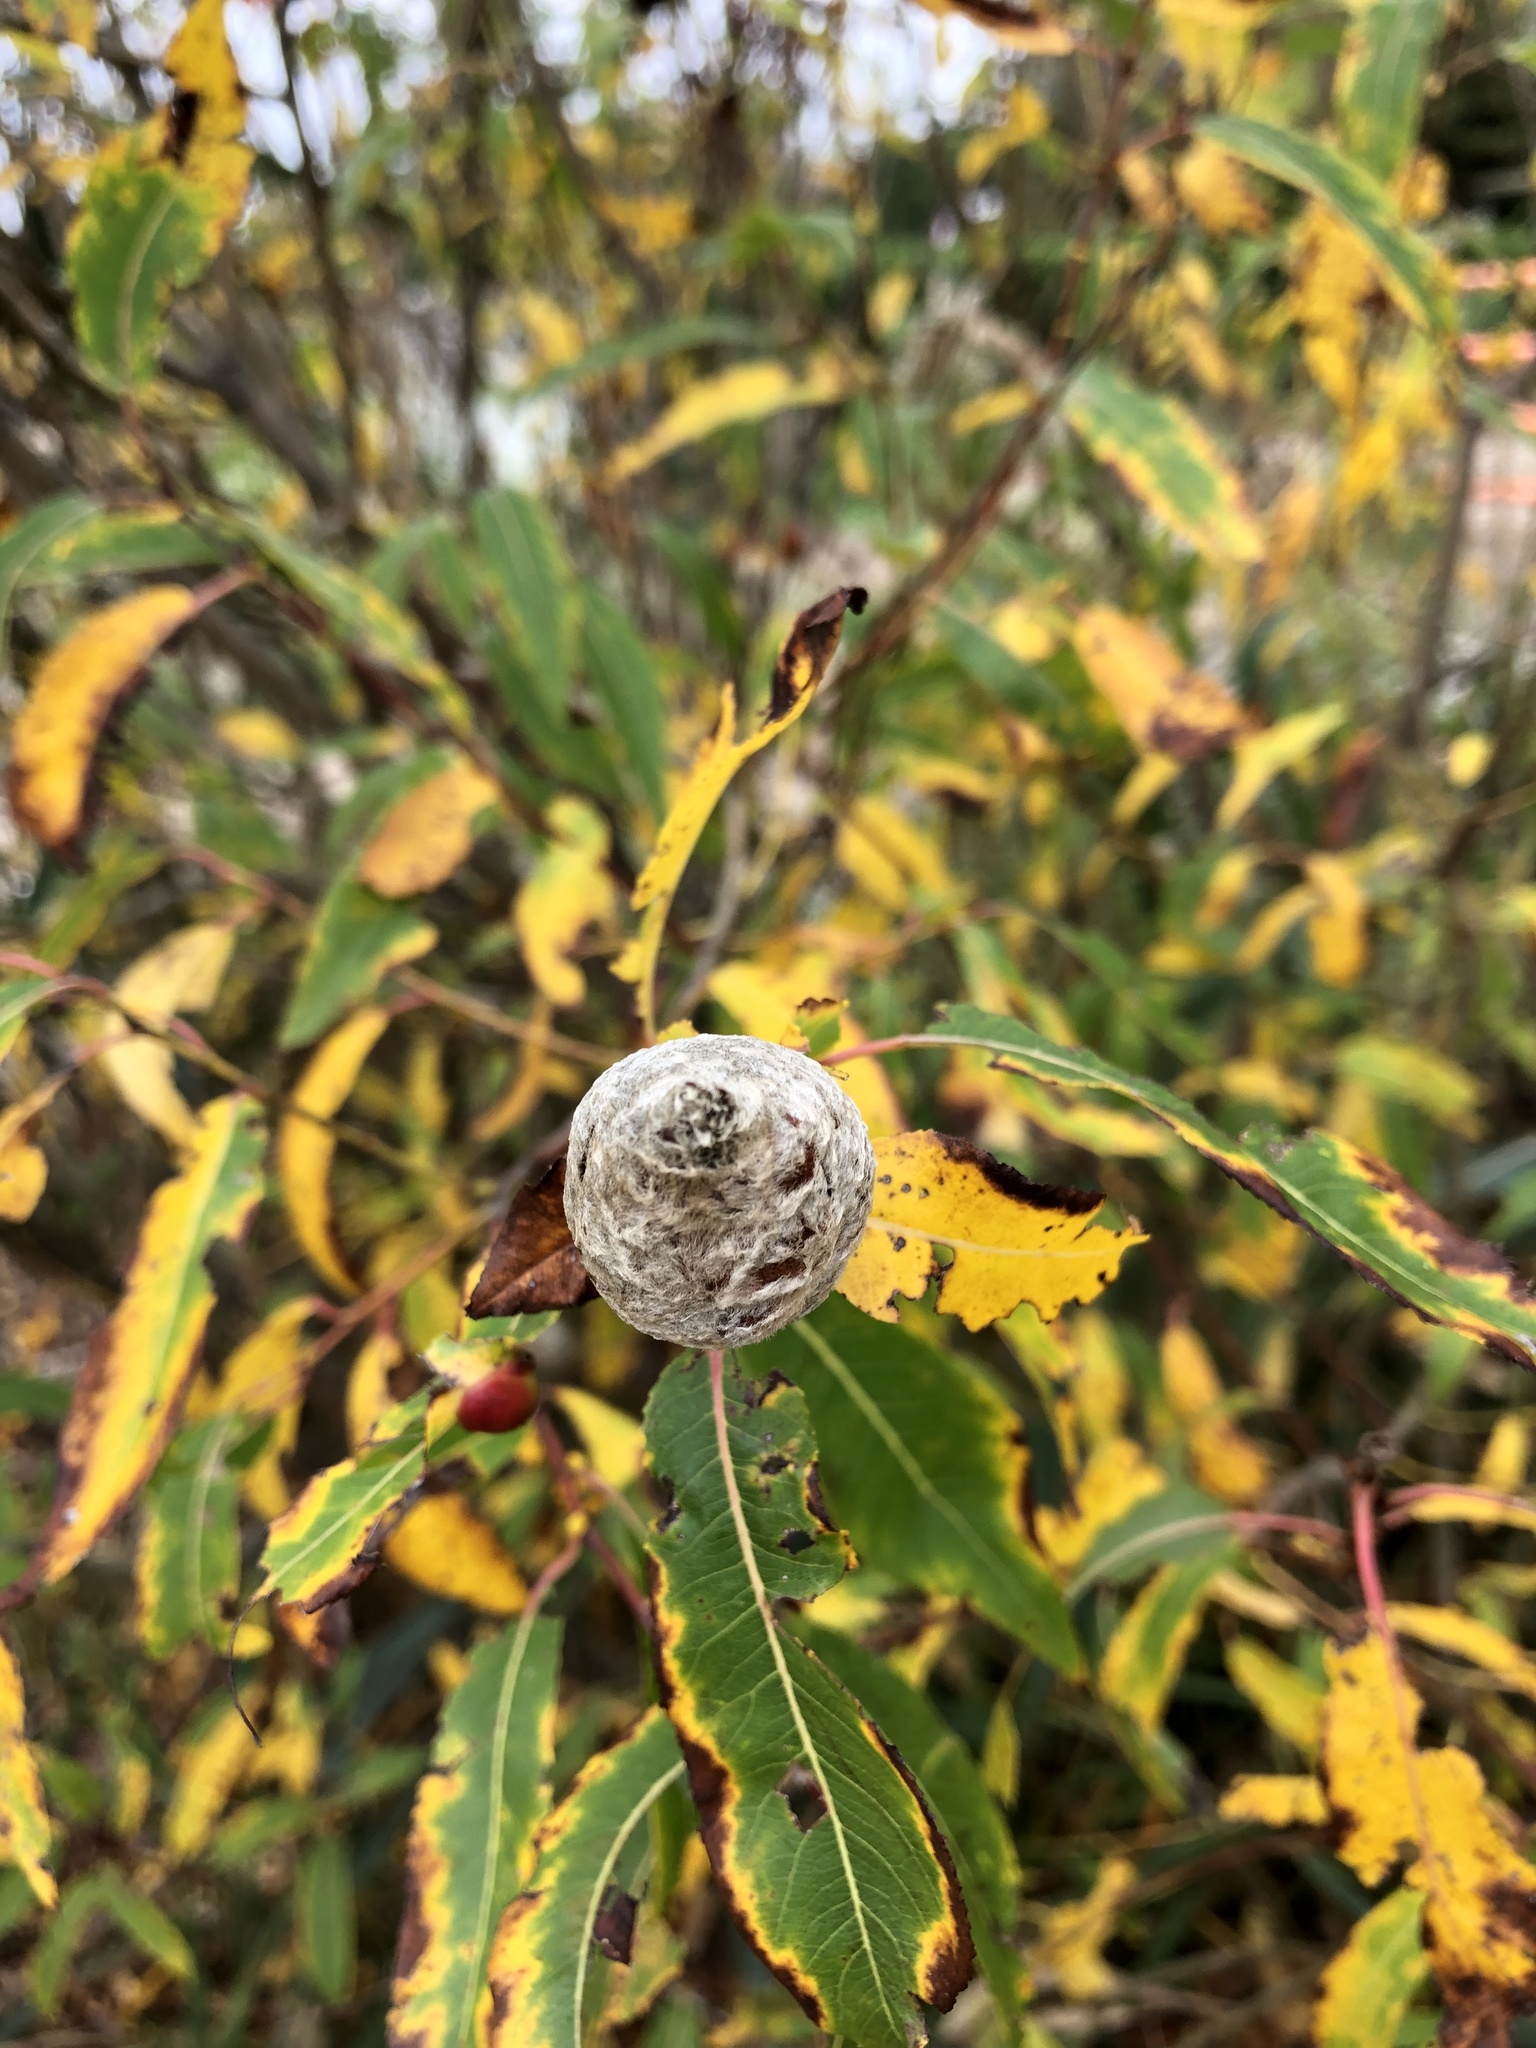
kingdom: Animalia
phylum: Arthropoda
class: Insecta
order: Diptera
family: Cecidomyiidae
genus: Rabdophaga
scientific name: Rabdophaga strobiloides
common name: Willow pinecone gall midge
